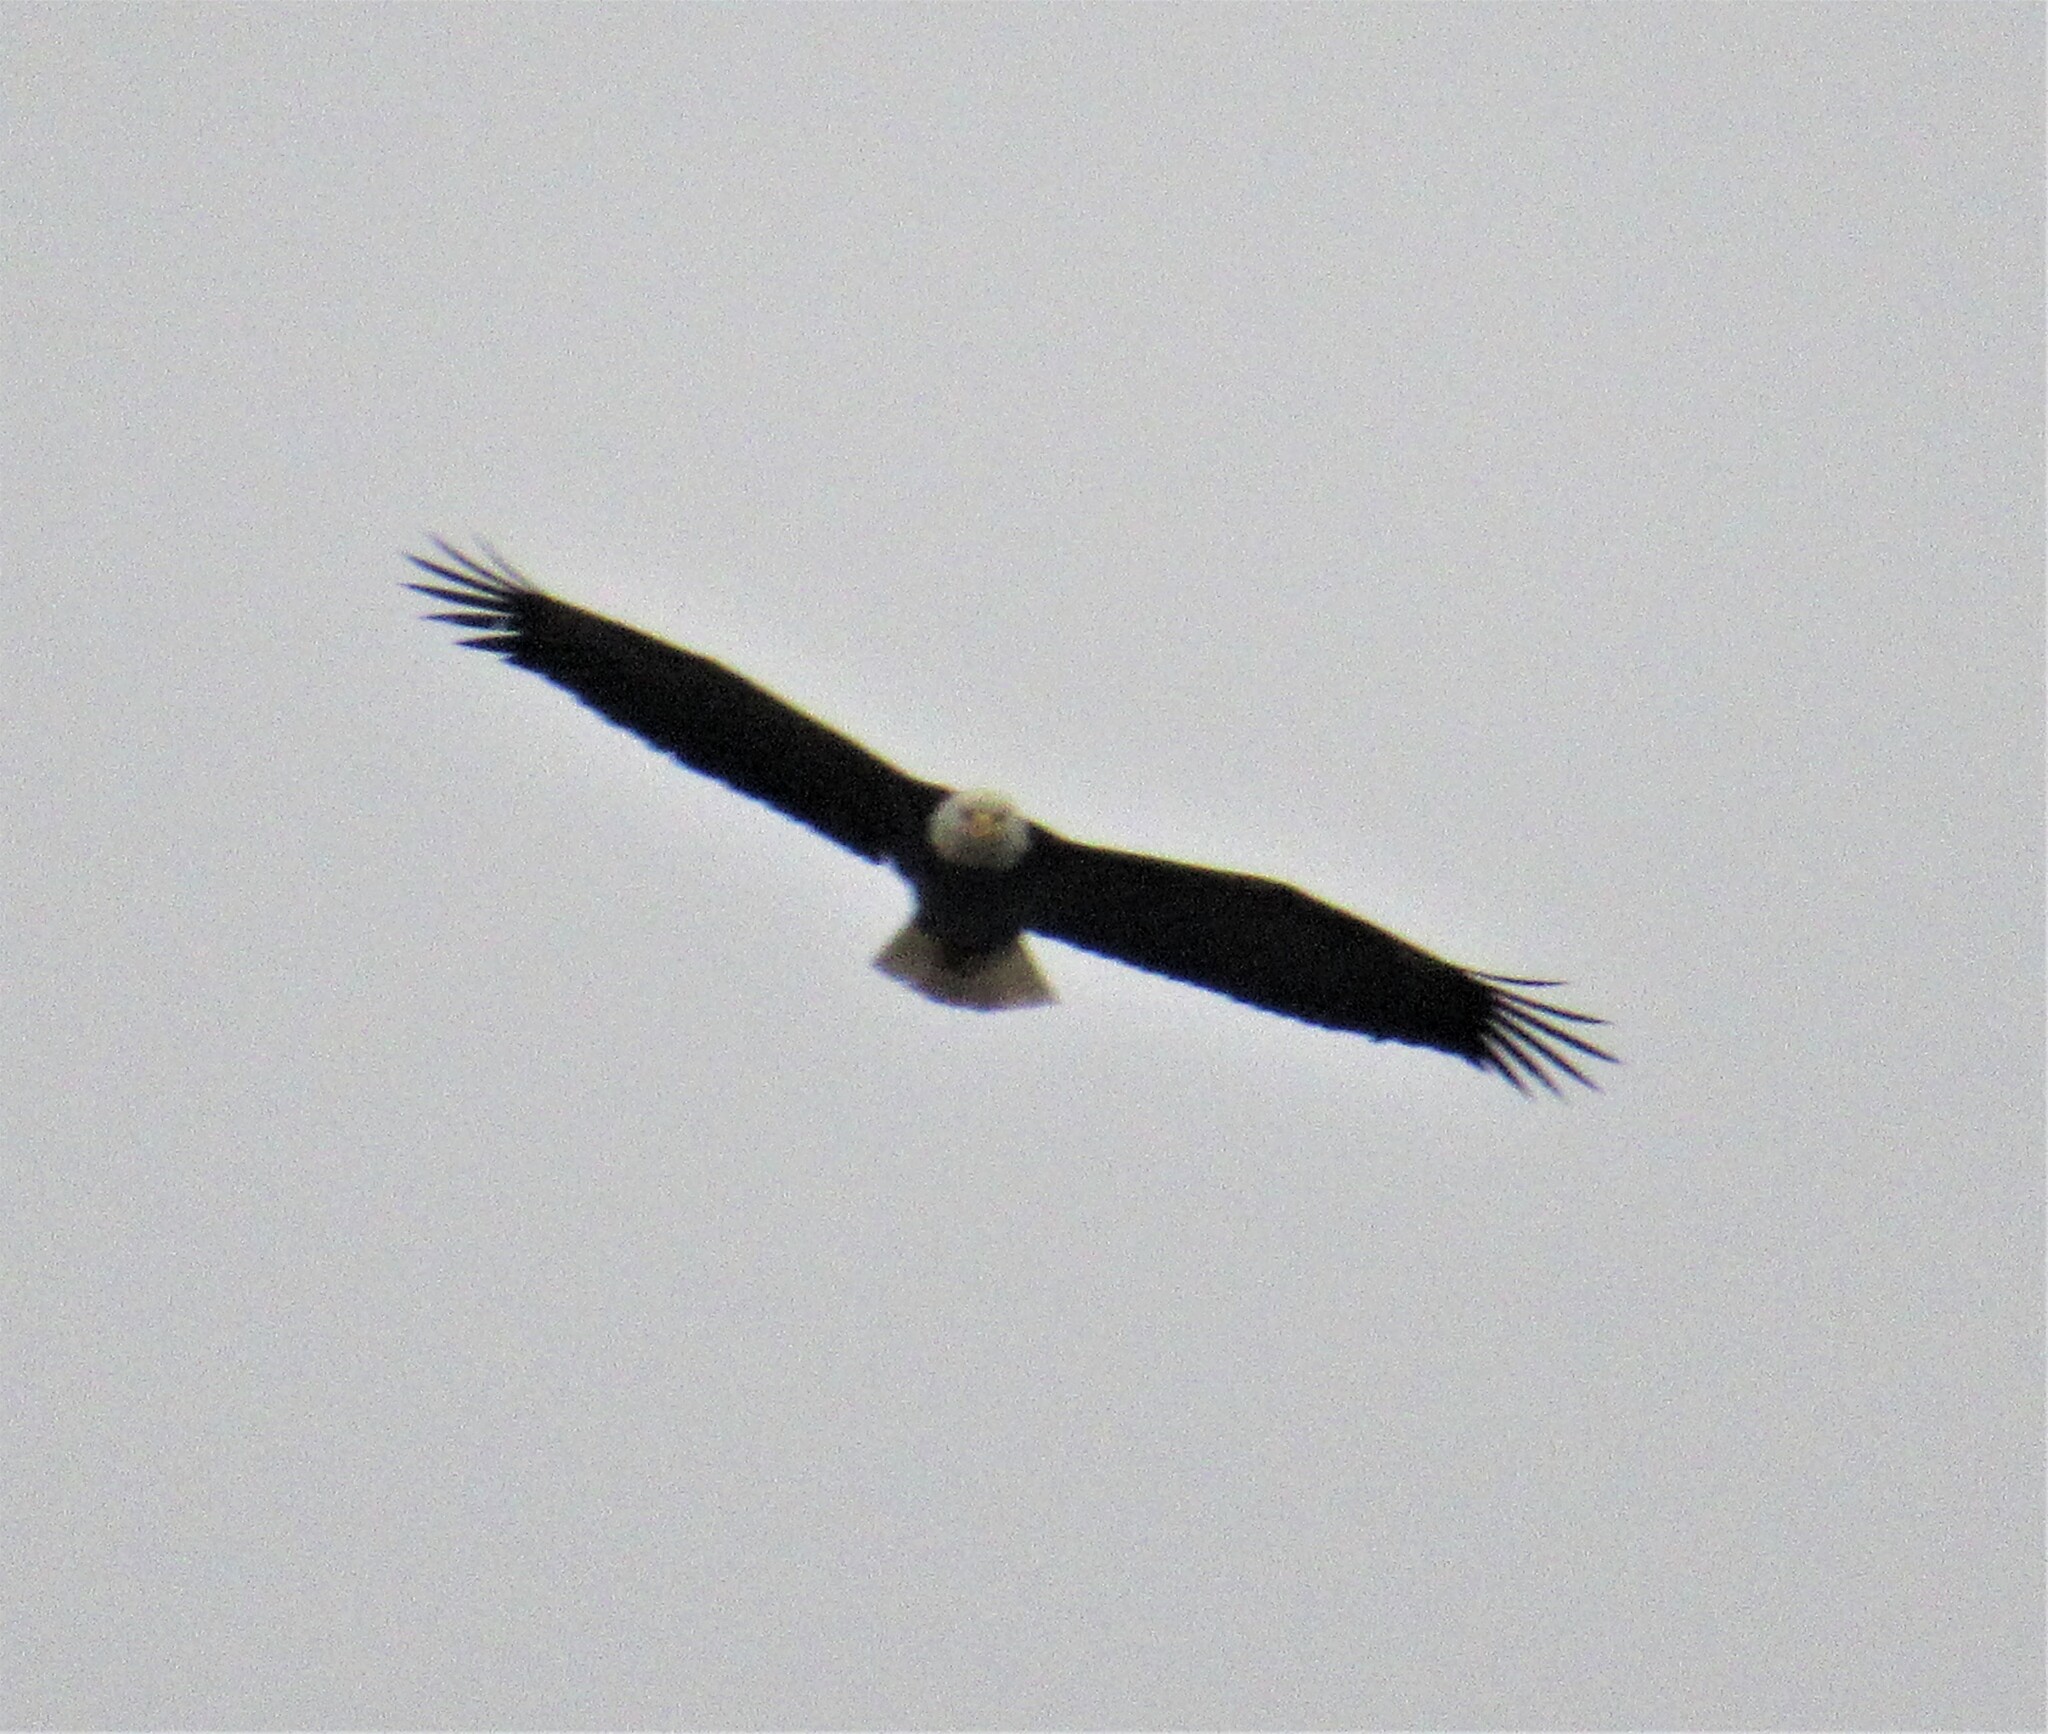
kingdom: Animalia
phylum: Chordata
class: Aves
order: Accipitriformes
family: Accipitridae
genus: Haliaeetus
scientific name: Haliaeetus leucocephalus
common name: Bald eagle
